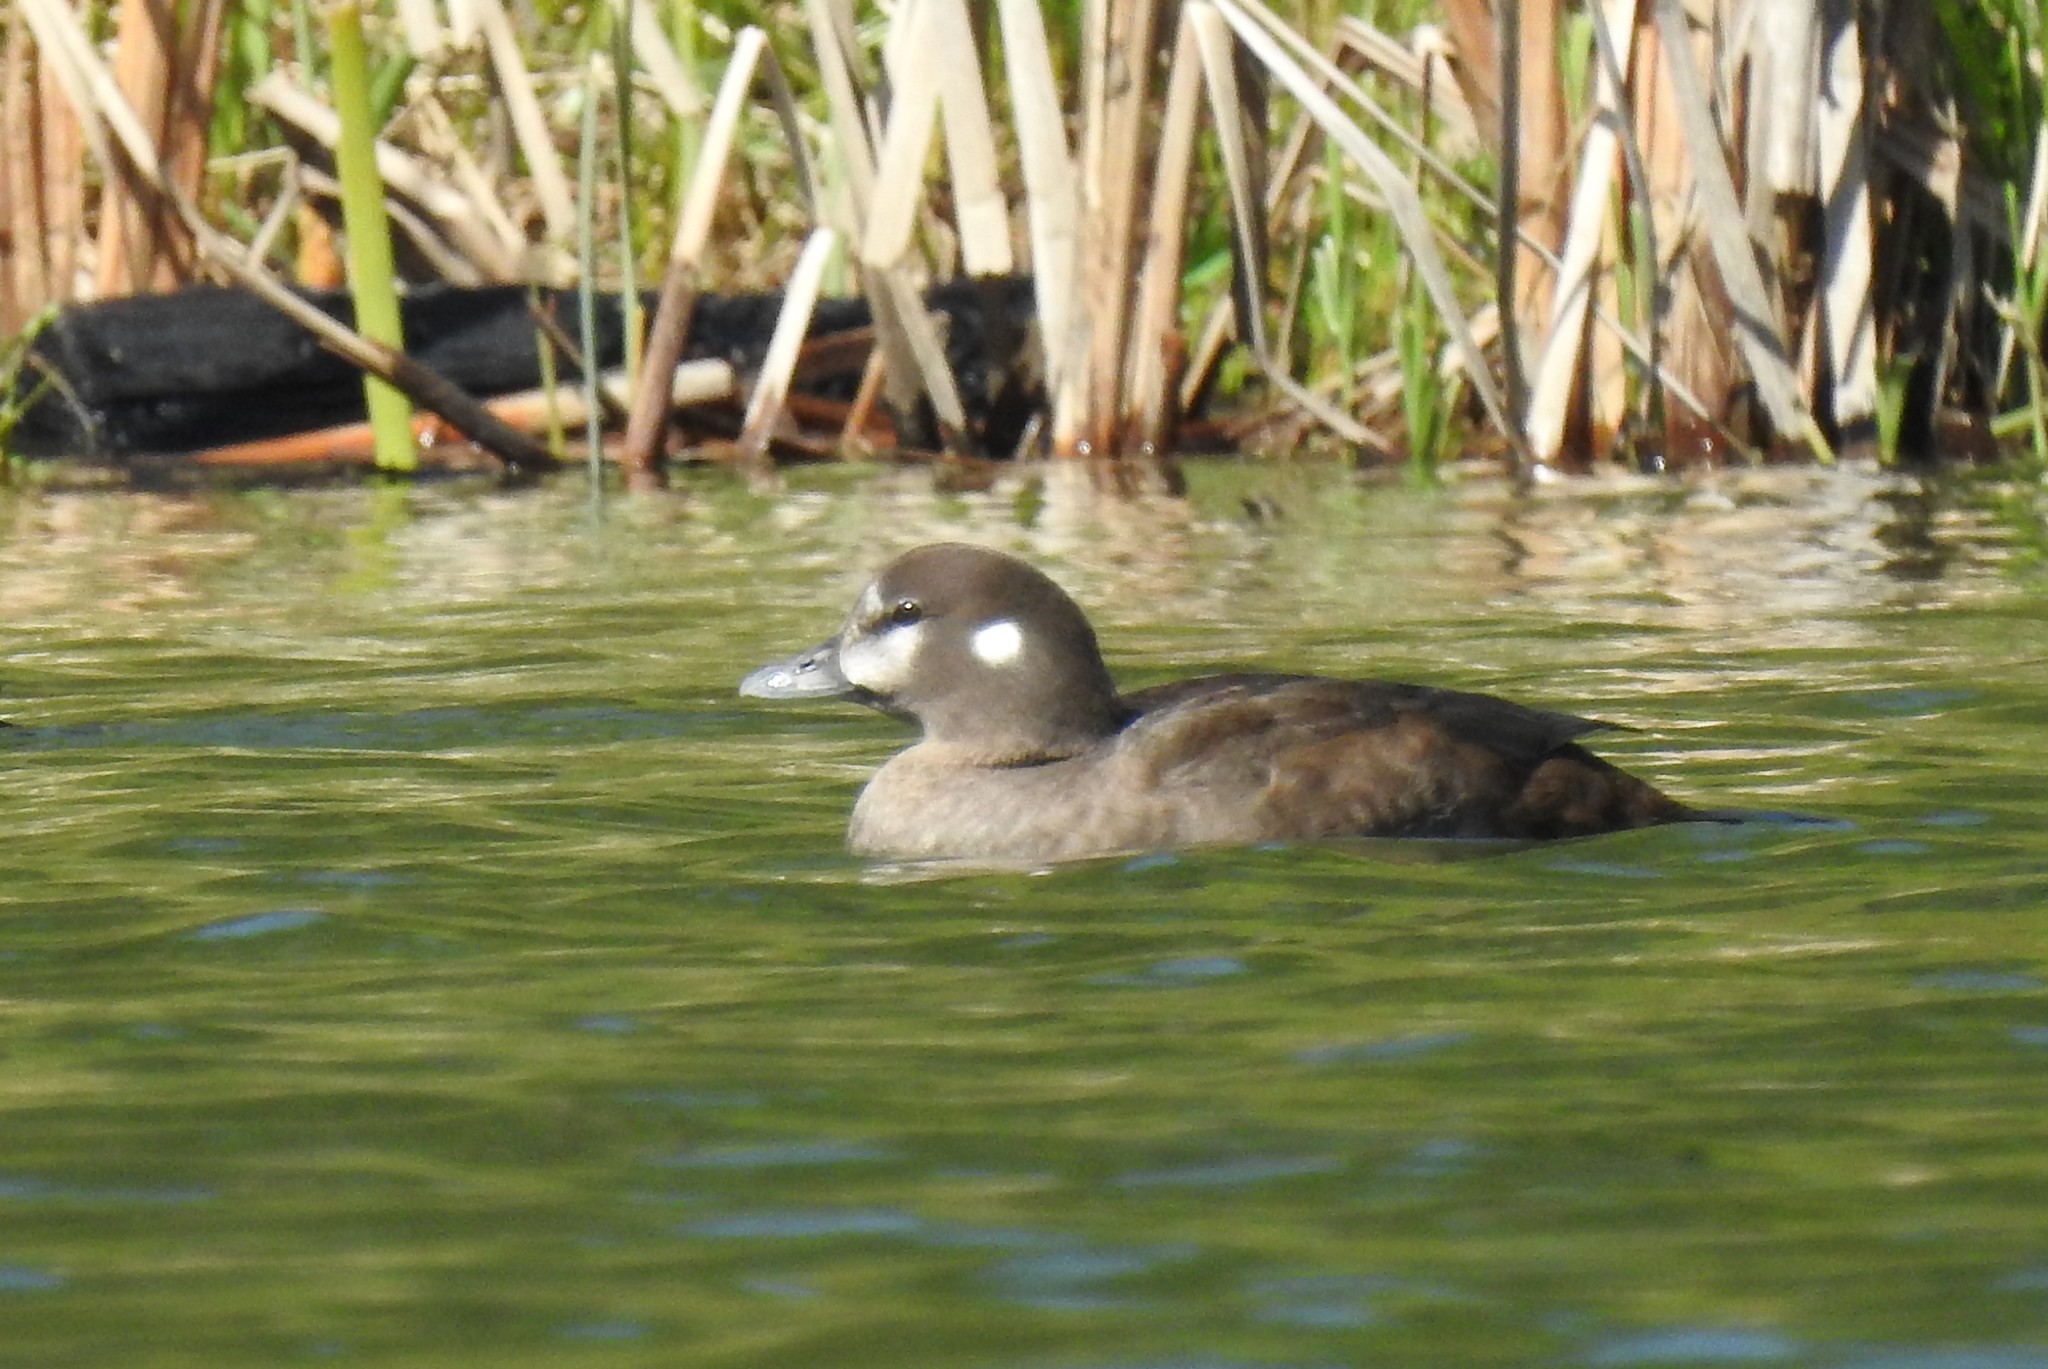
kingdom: Animalia
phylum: Chordata
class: Aves
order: Anseriformes
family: Anatidae
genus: Histrionicus
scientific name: Histrionicus histrionicus
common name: Harlequin duck
